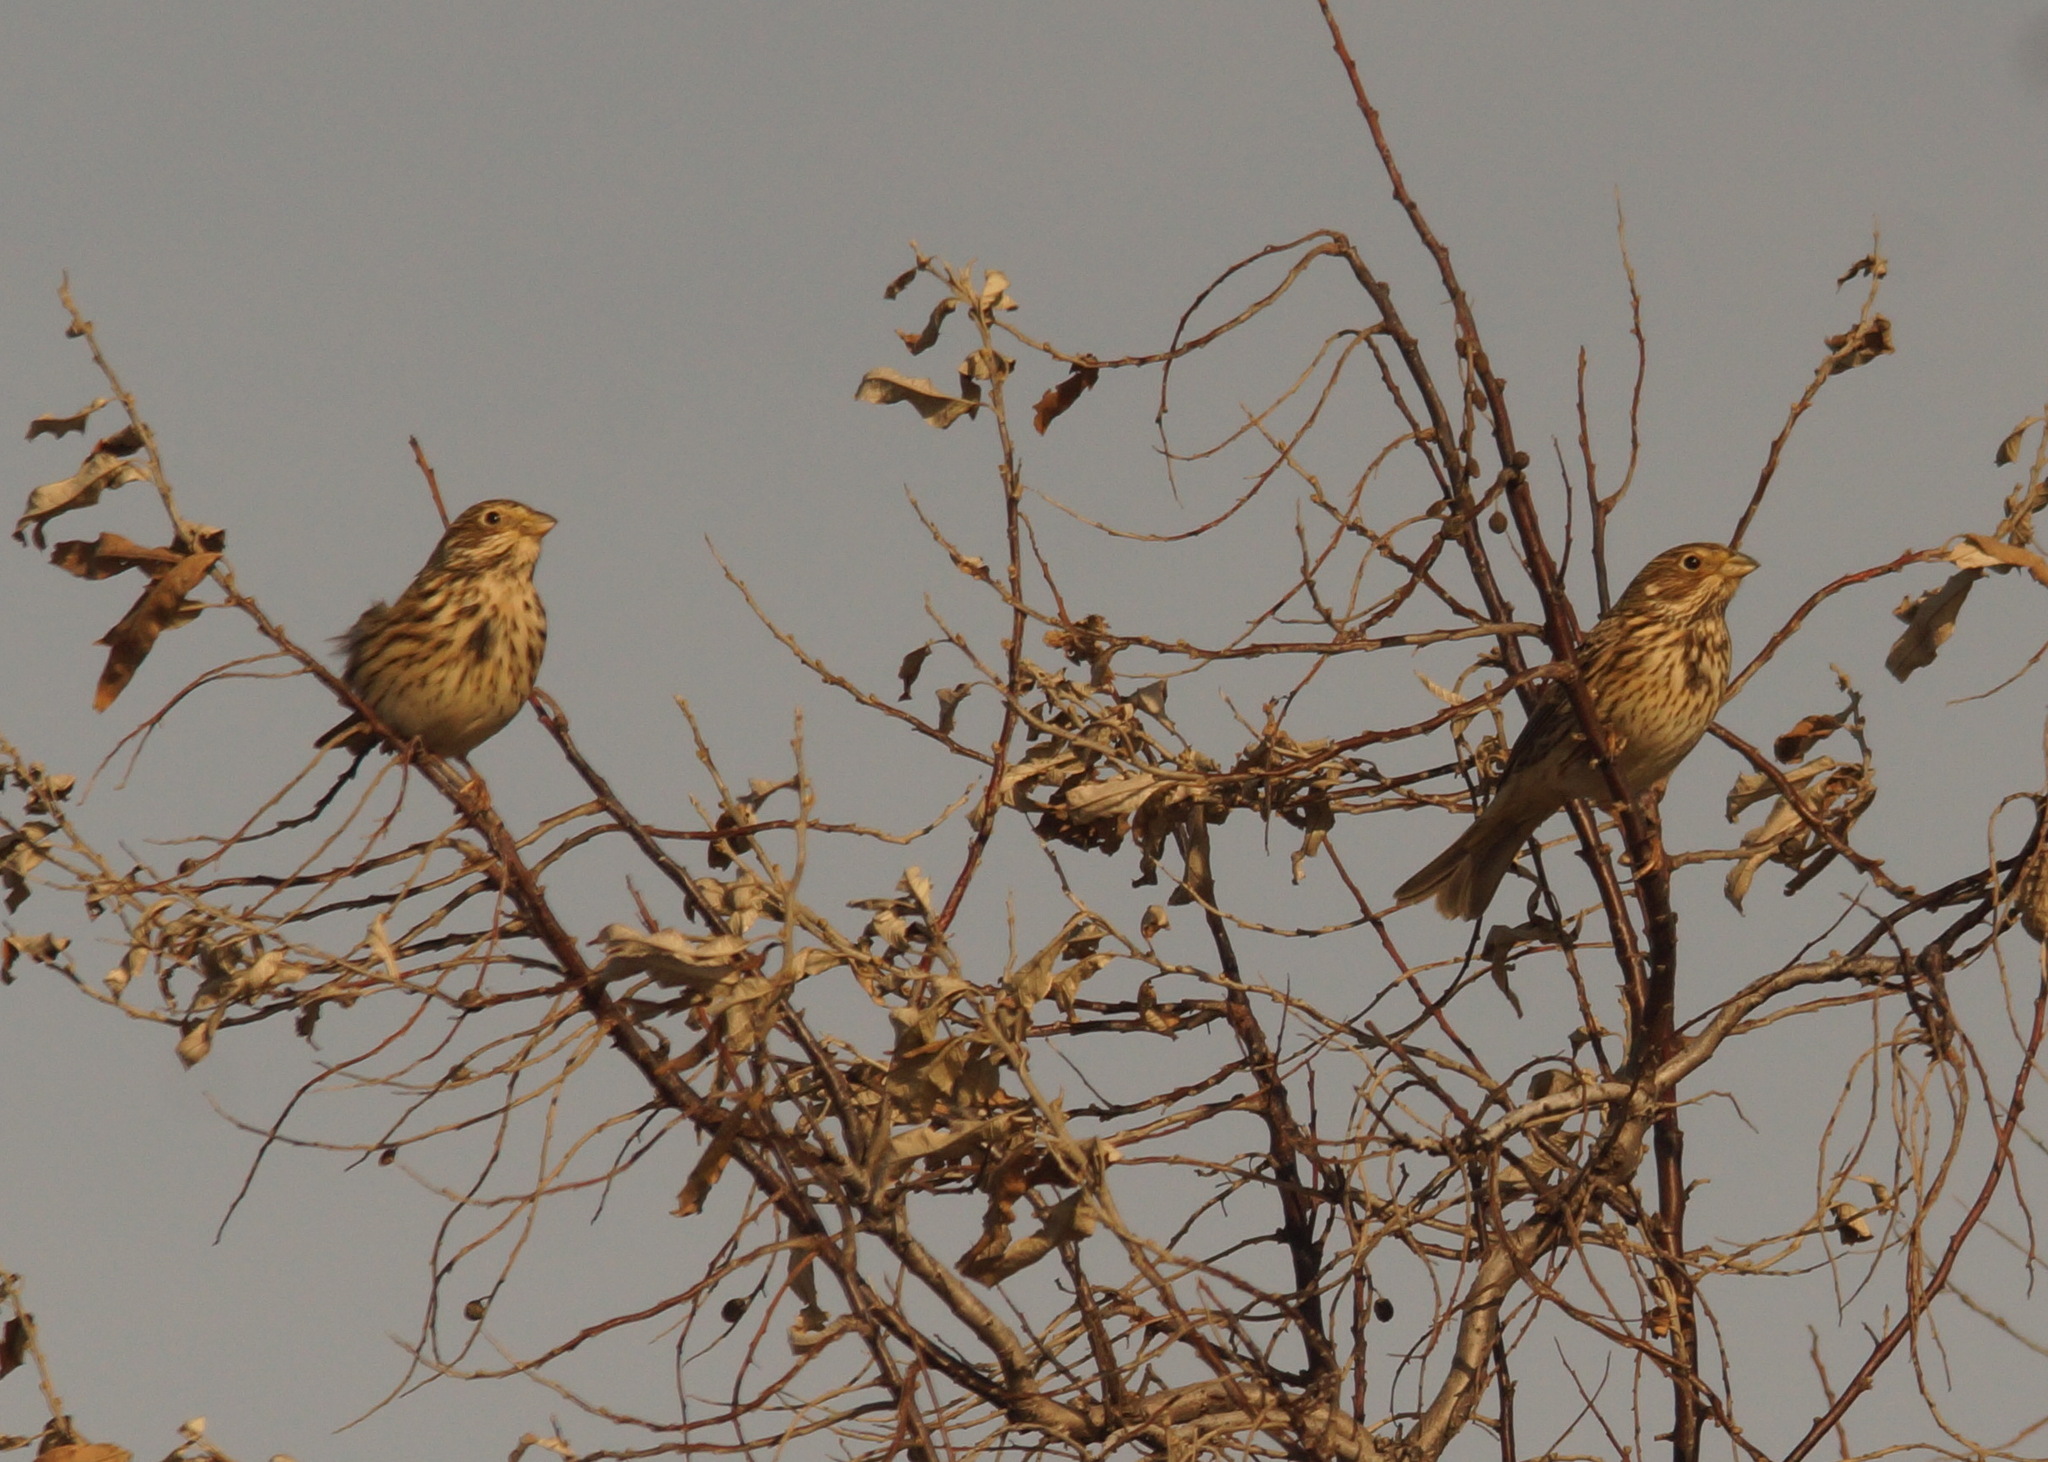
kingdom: Animalia
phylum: Chordata
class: Aves
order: Passeriformes
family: Emberizidae
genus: Emberiza
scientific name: Emberiza calandra
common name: Corn bunting
